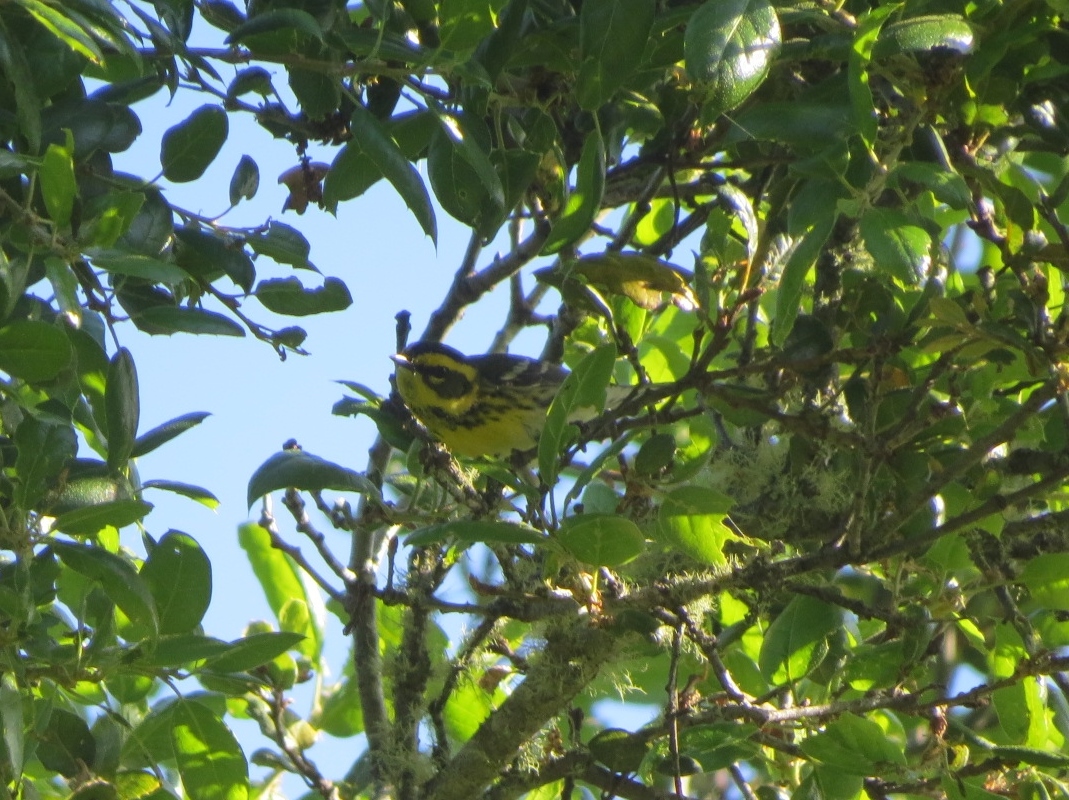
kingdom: Animalia
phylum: Chordata
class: Aves
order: Passeriformes
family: Parulidae
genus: Setophaga
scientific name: Setophaga townsendi
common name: Townsend's warbler
